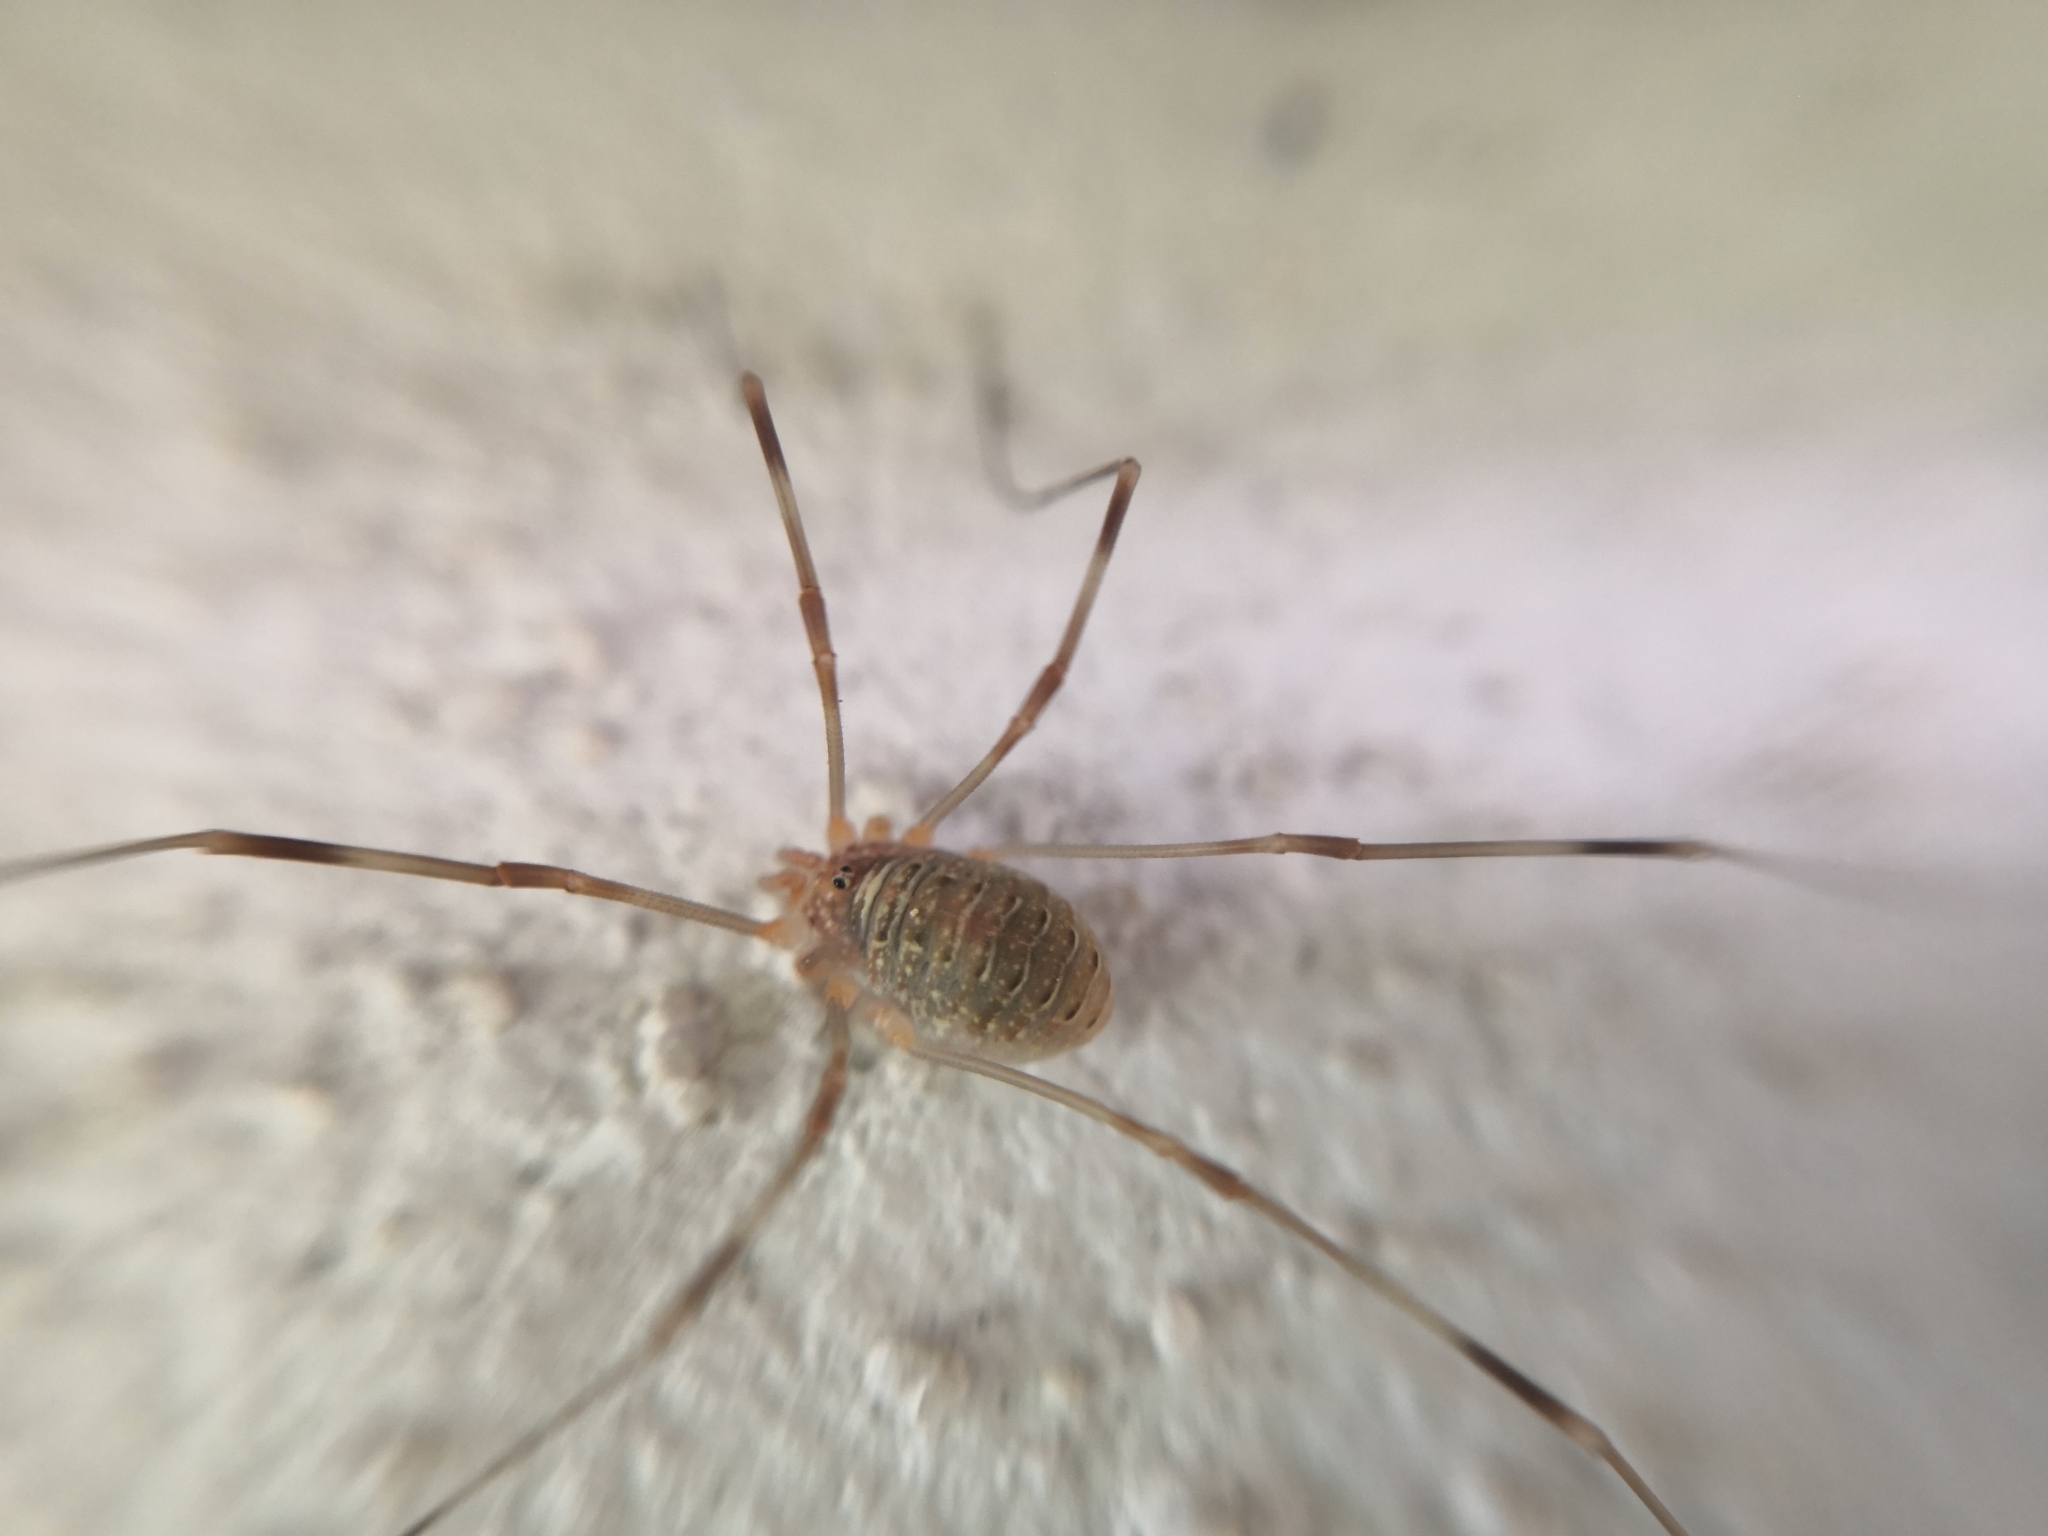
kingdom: Animalia
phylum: Arthropoda
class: Arachnida
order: Opiliones
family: Phalangiidae
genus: Opilio
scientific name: Opilio canestrinii
